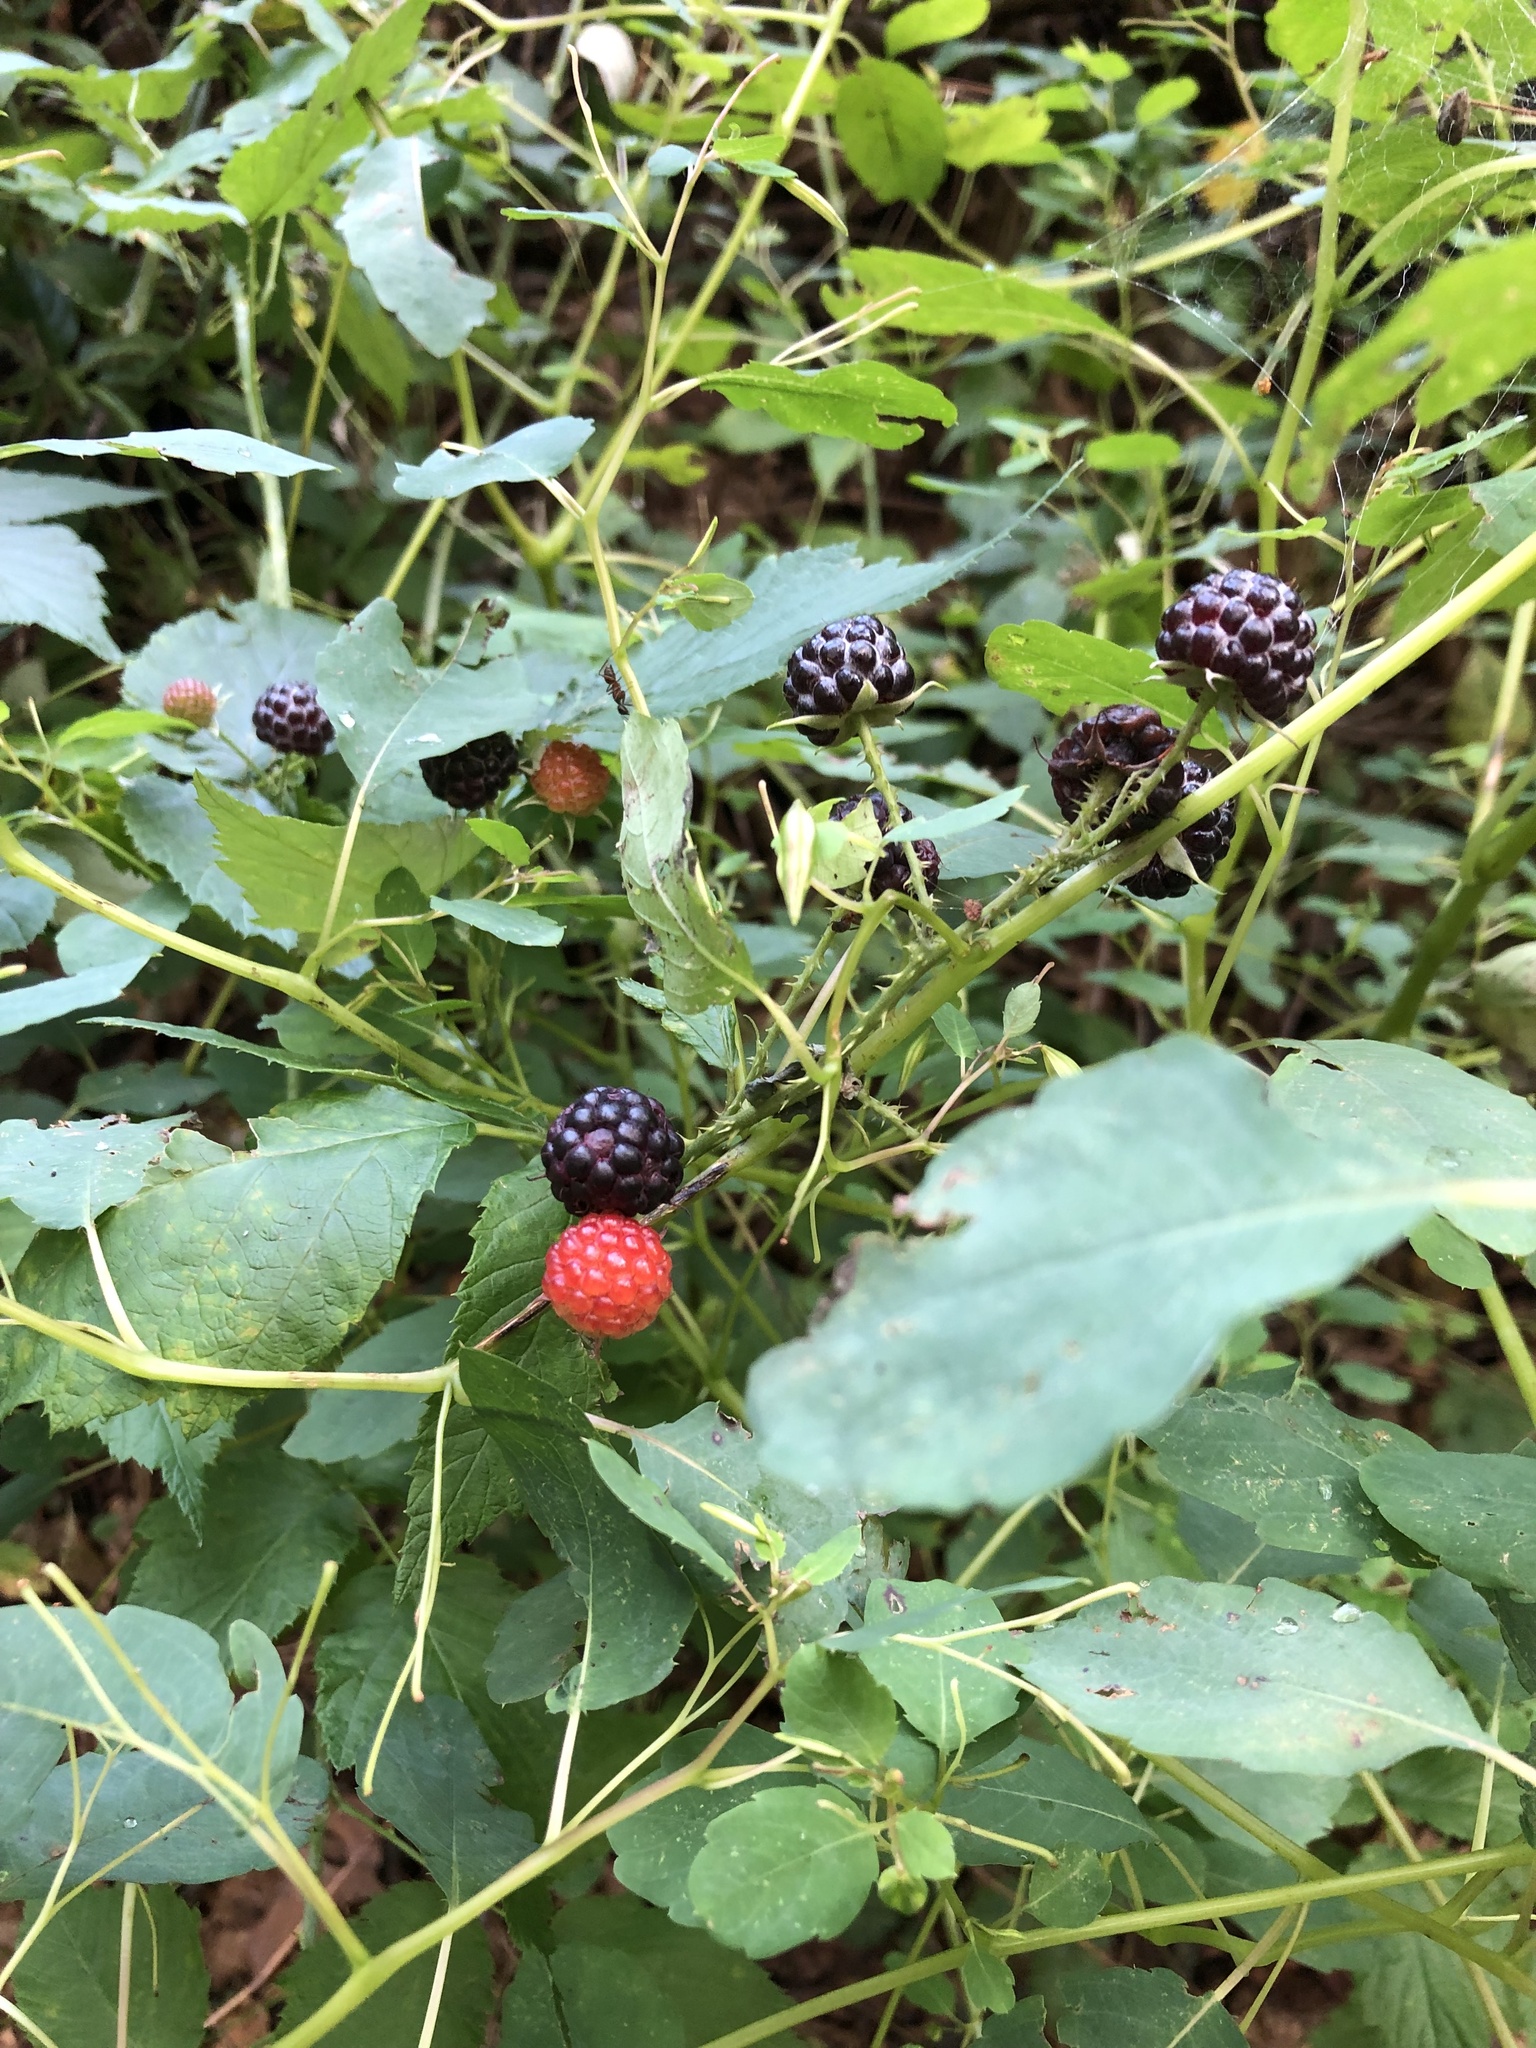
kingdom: Plantae
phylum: Tracheophyta
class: Magnoliopsida
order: Rosales
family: Rosaceae
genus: Rubus
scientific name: Rubus occidentalis
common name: Black raspberry
